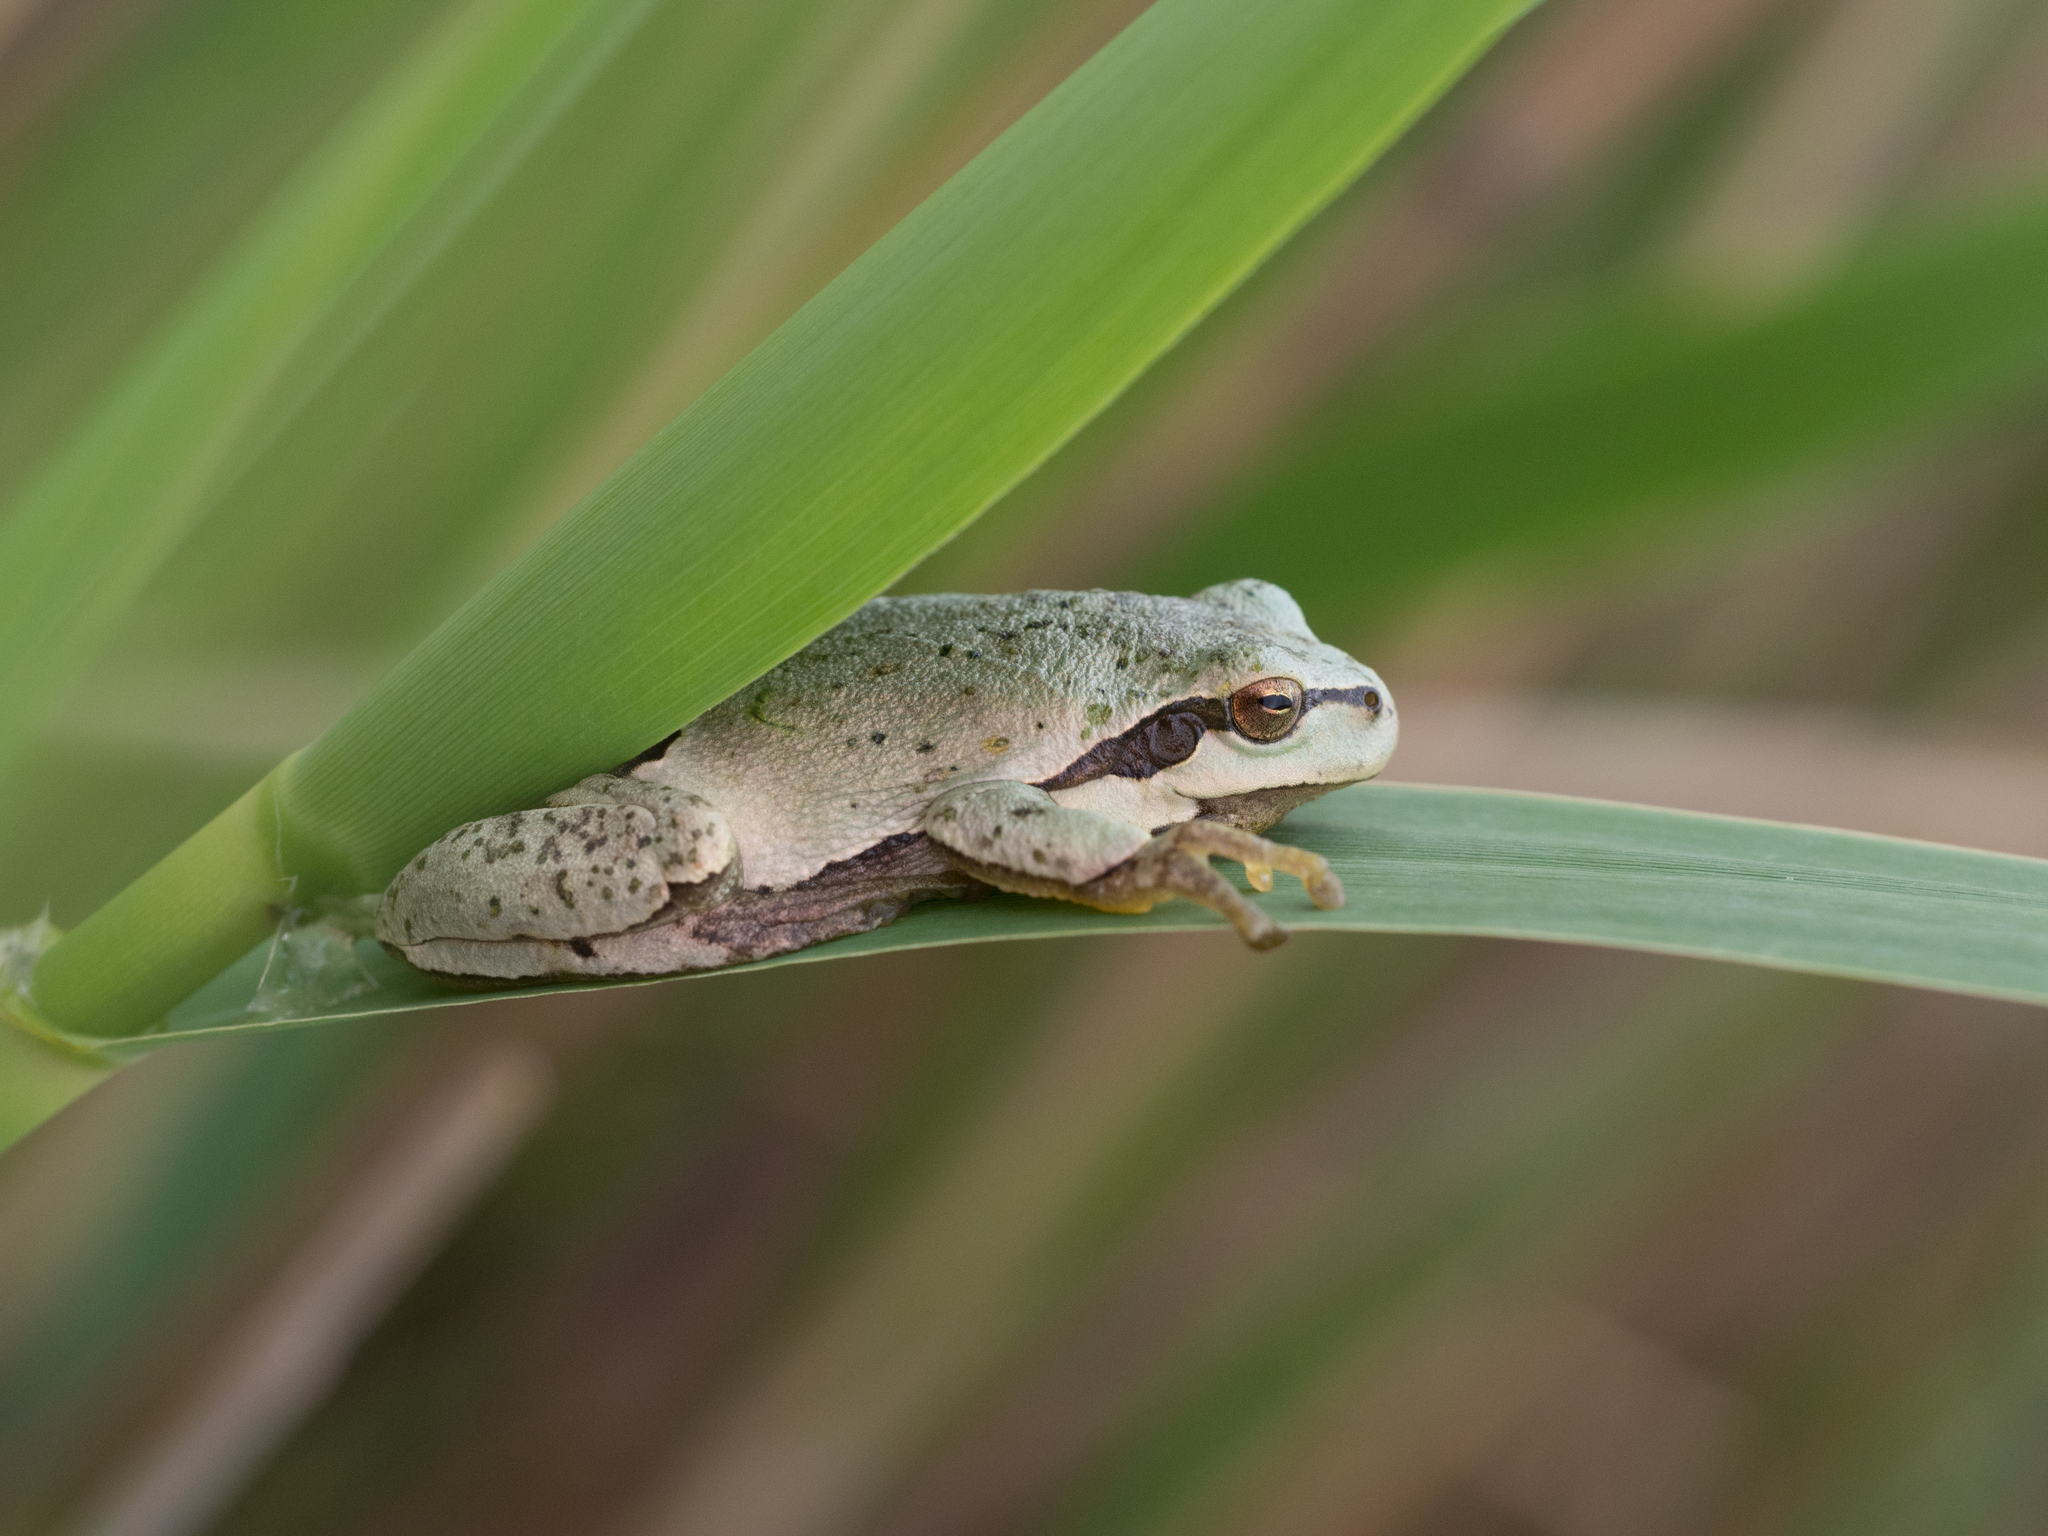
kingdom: Animalia
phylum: Chordata
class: Amphibia
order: Anura
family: Hylidae
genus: Hyla
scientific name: Hyla arborea
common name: Common tree frog
